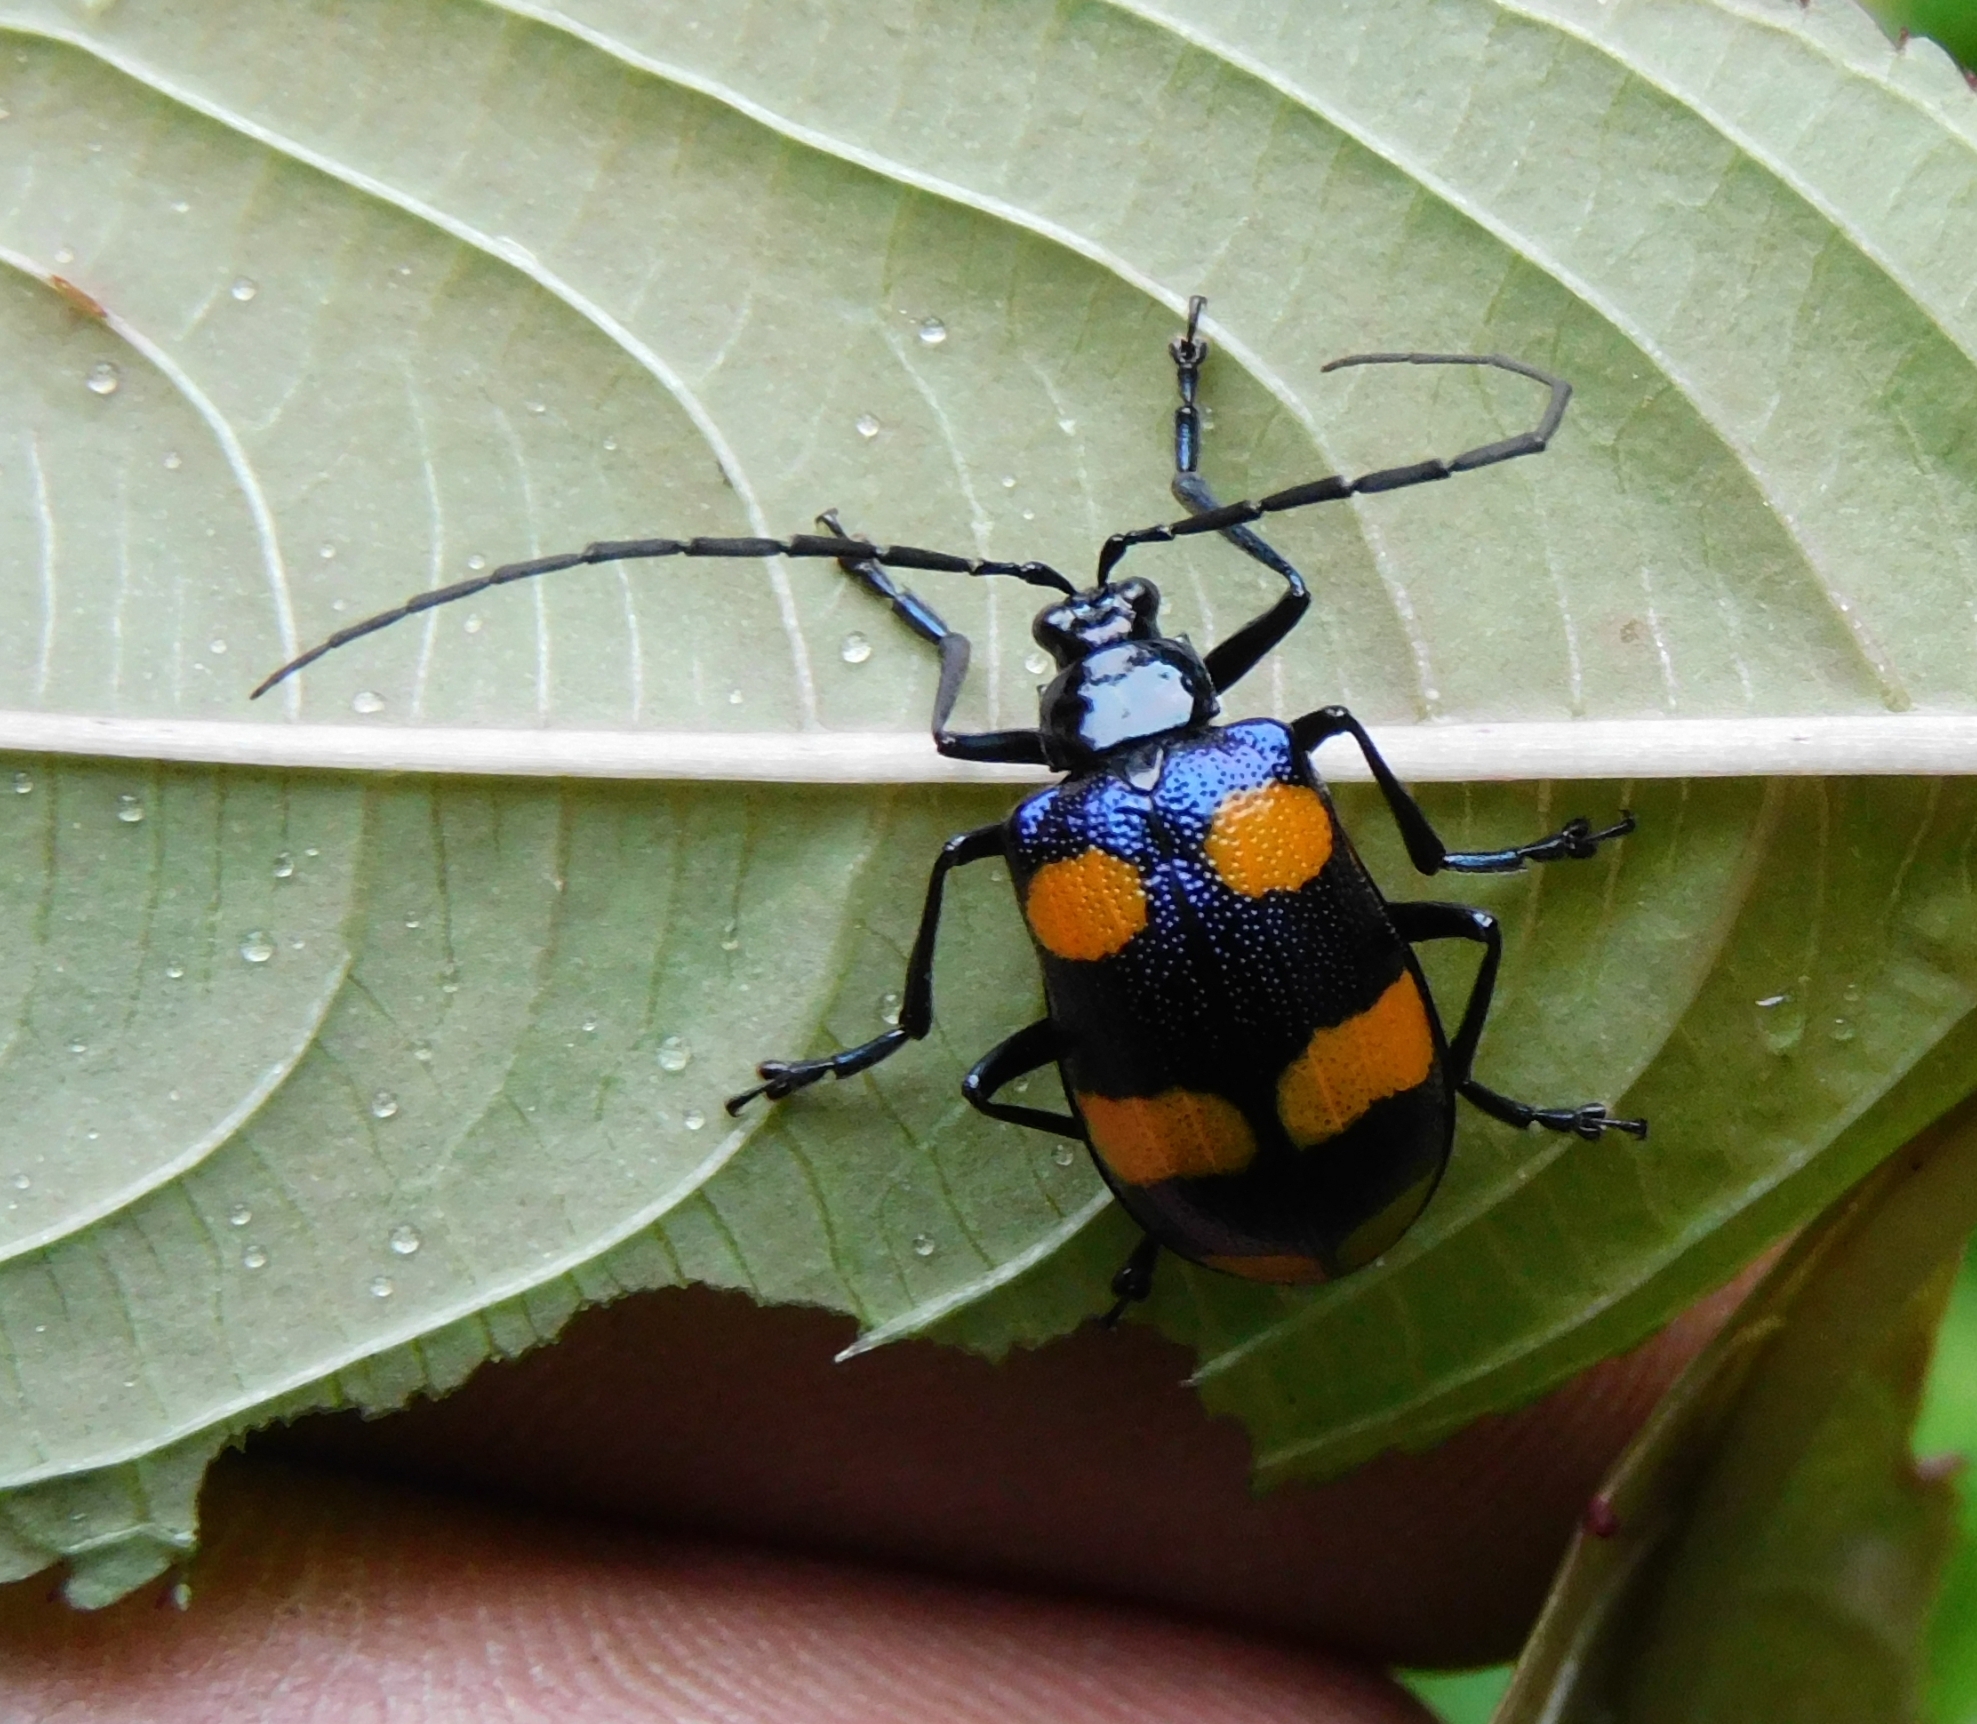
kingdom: Animalia
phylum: Arthropoda
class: Insecta
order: Coleoptera
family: Chrysomelidae
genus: Meristata
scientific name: Meristata
